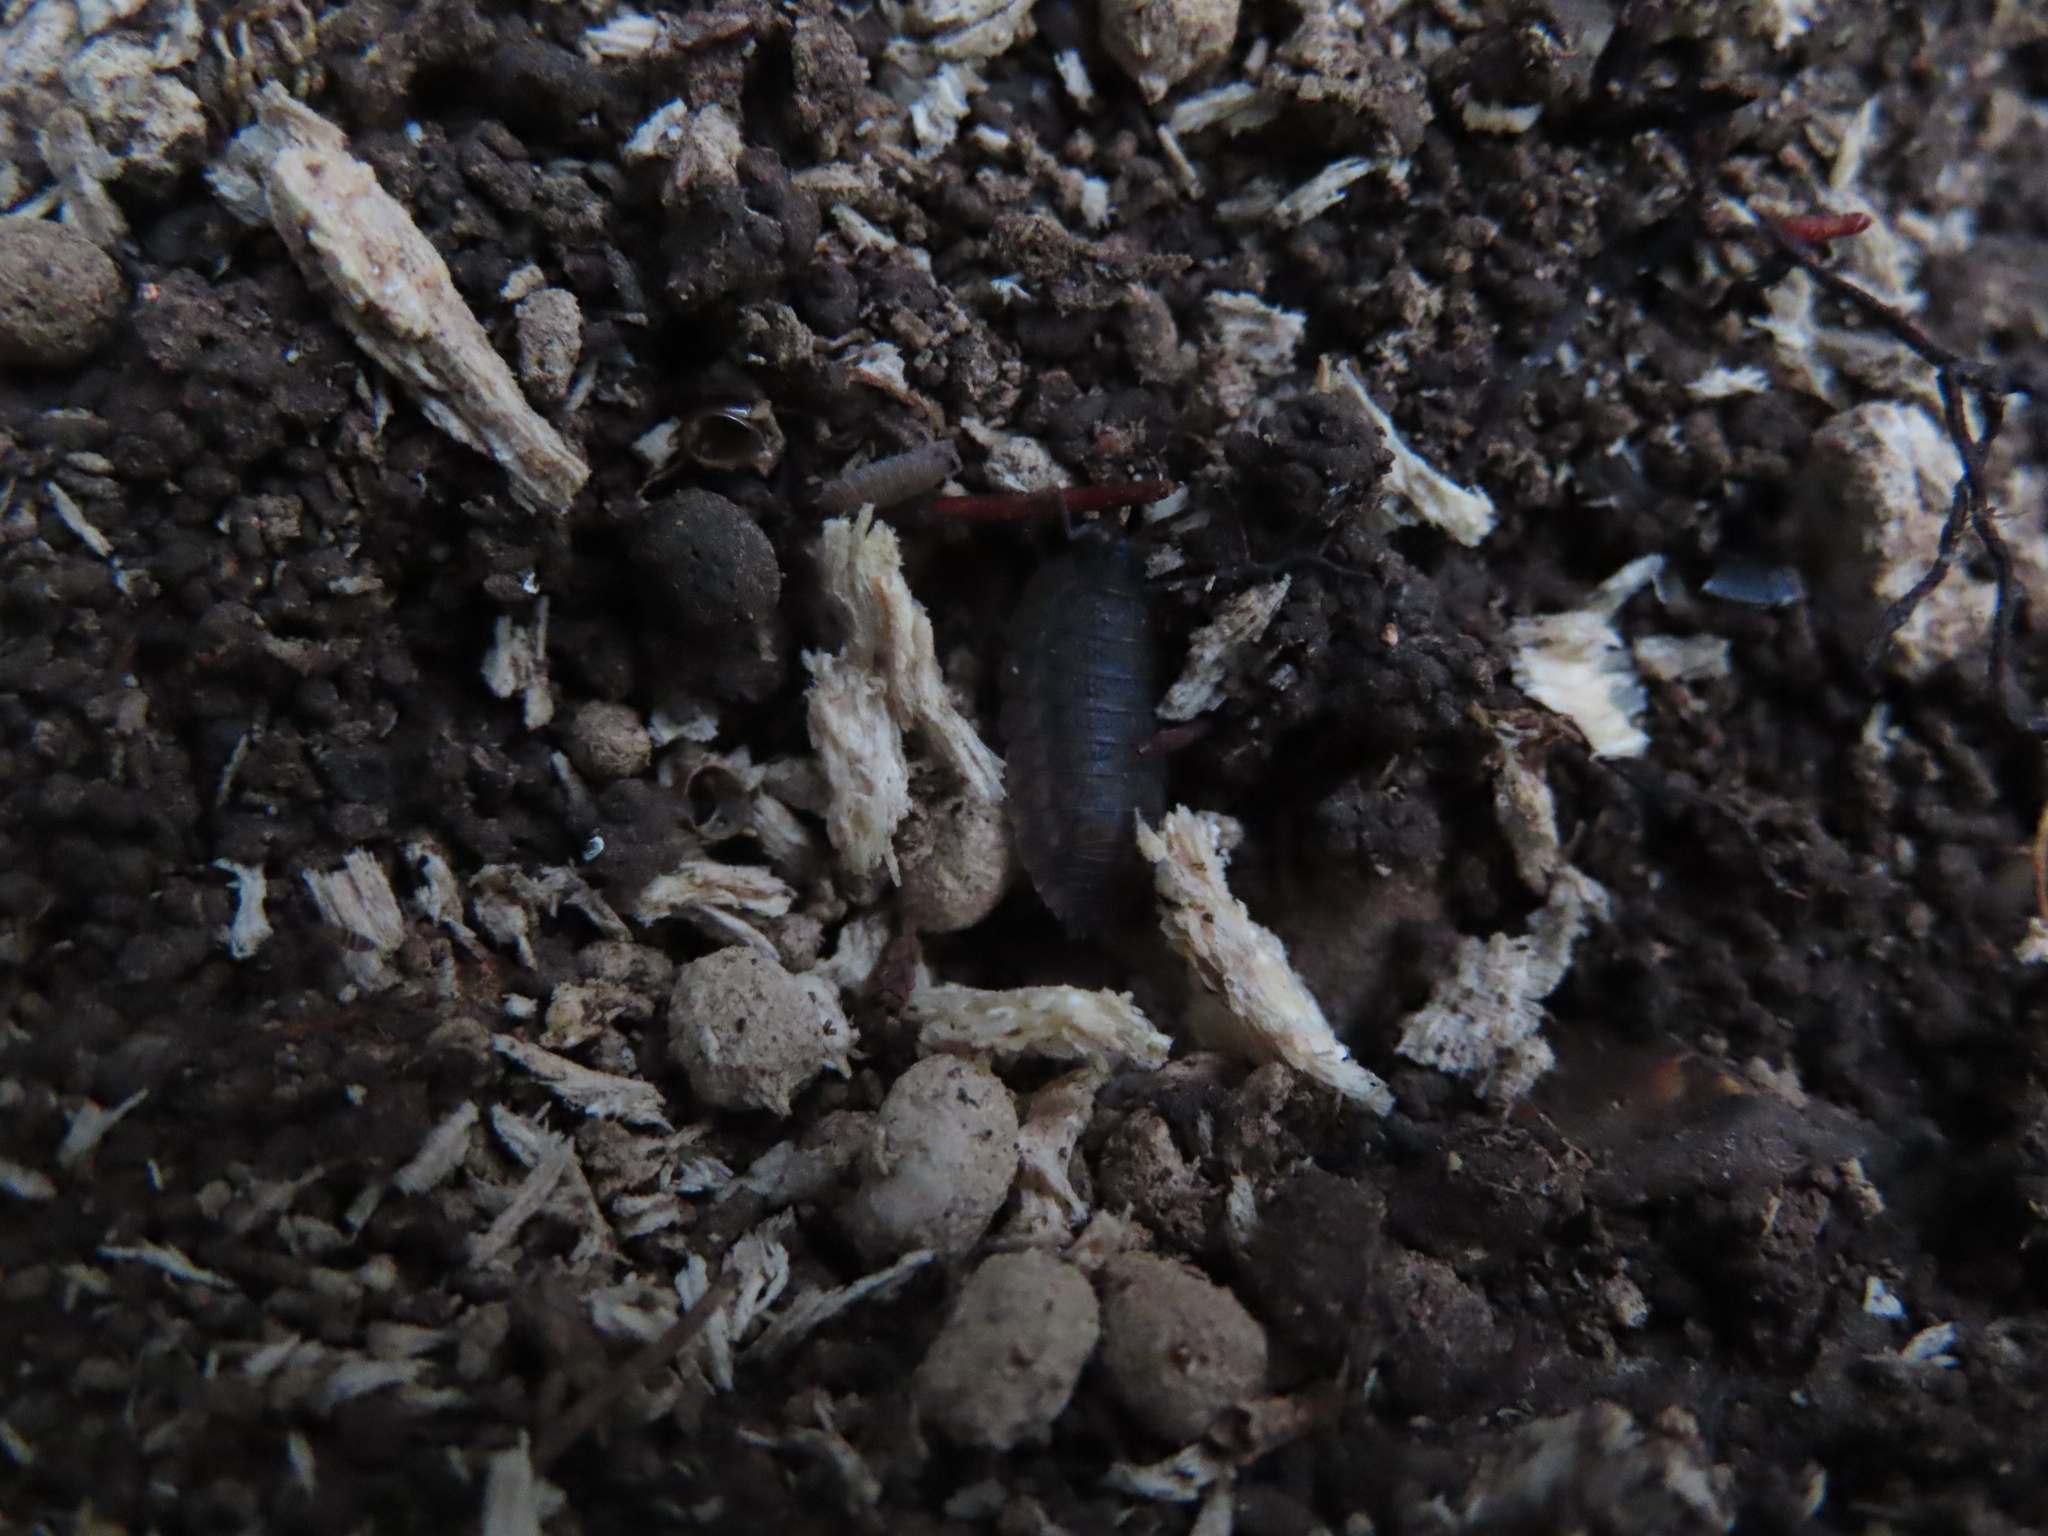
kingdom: Animalia
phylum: Arthropoda
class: Malacostraca
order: Isopoda
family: Trachelipodidae
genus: Trachelipus
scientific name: Trachelipus rathkii
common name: Isopod
